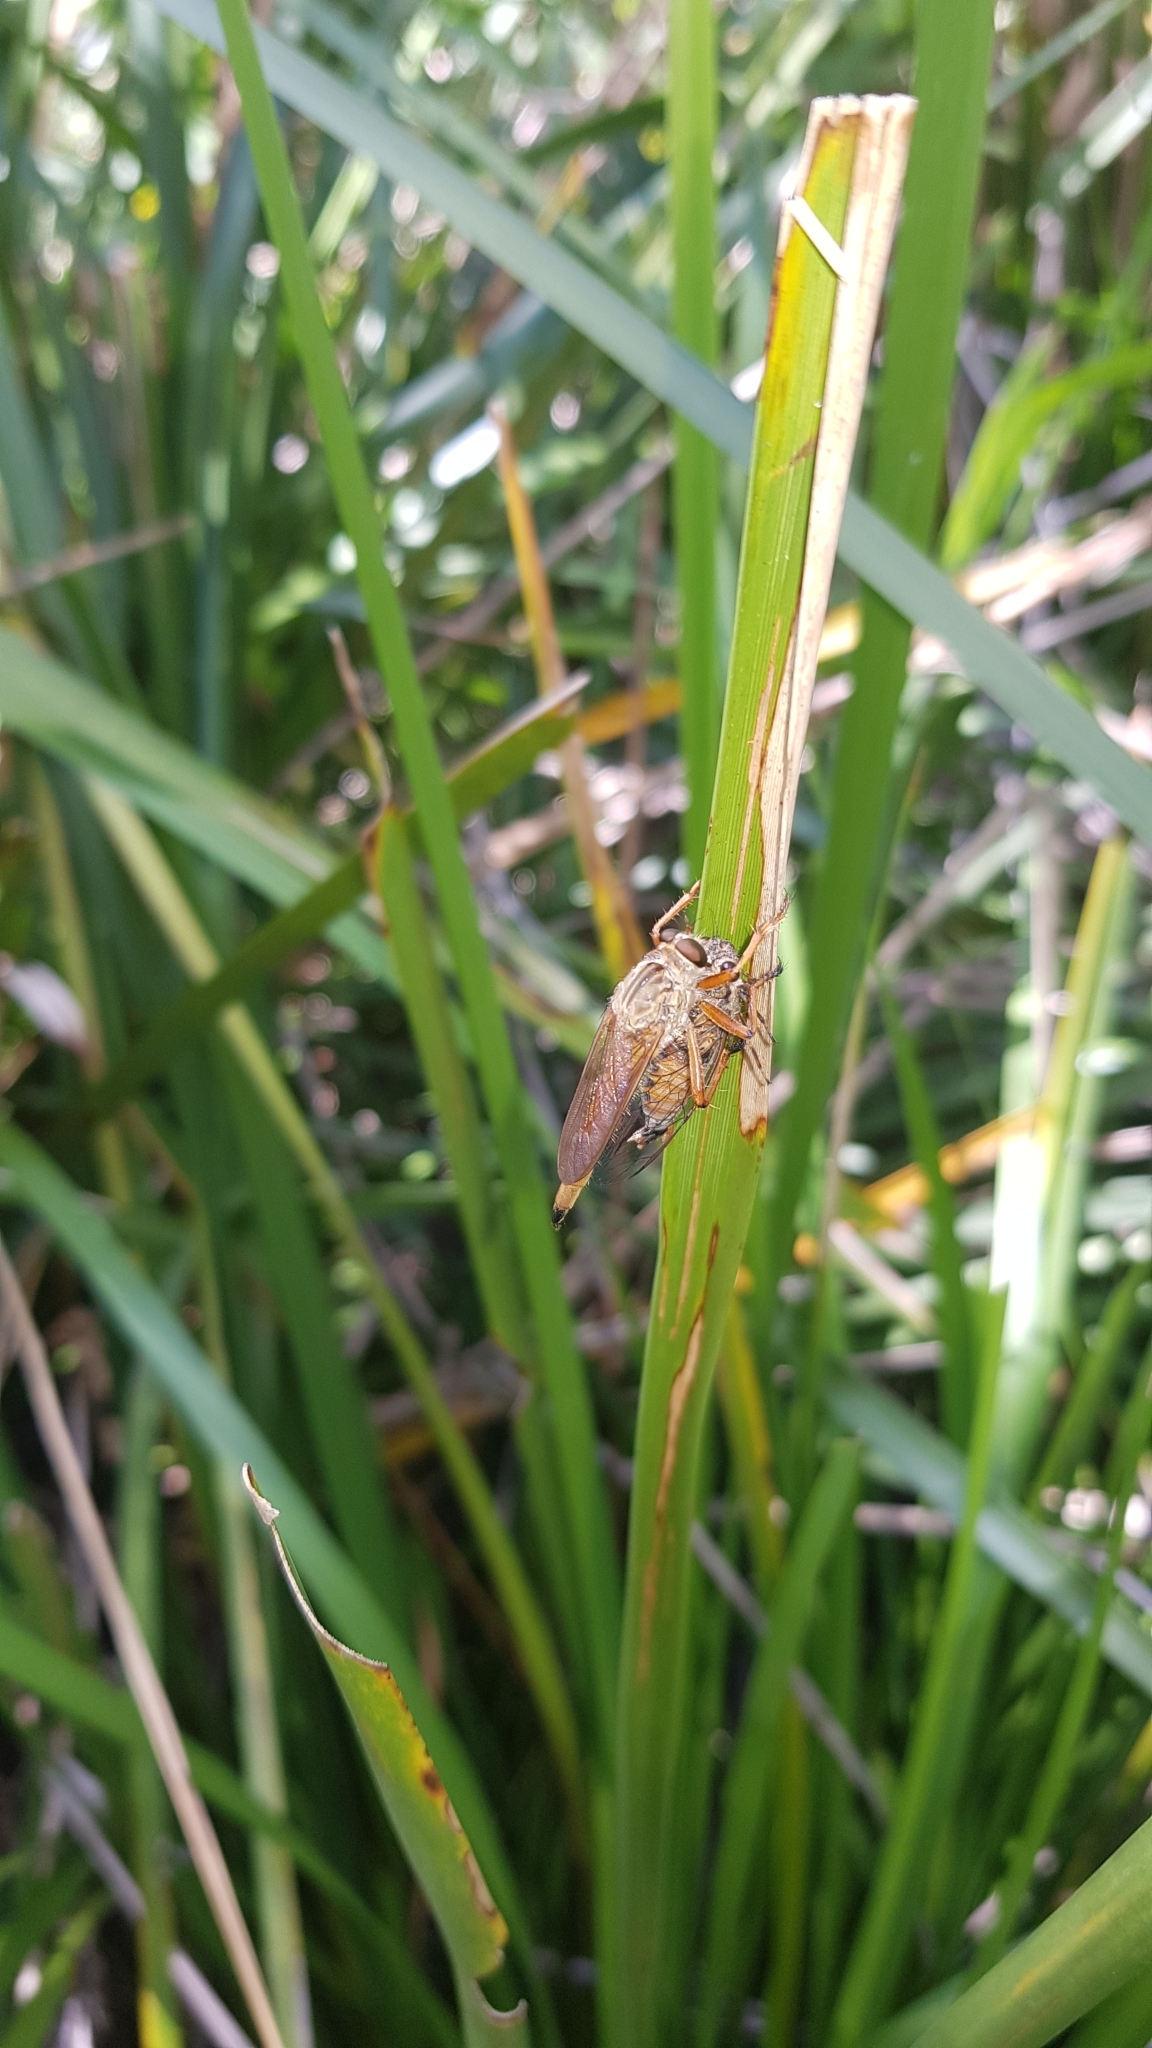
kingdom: Animalia
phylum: Arthropoda
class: Insecta
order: Hemiptera
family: Cicadidae
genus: Yoyetta
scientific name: Yoyetta celis
